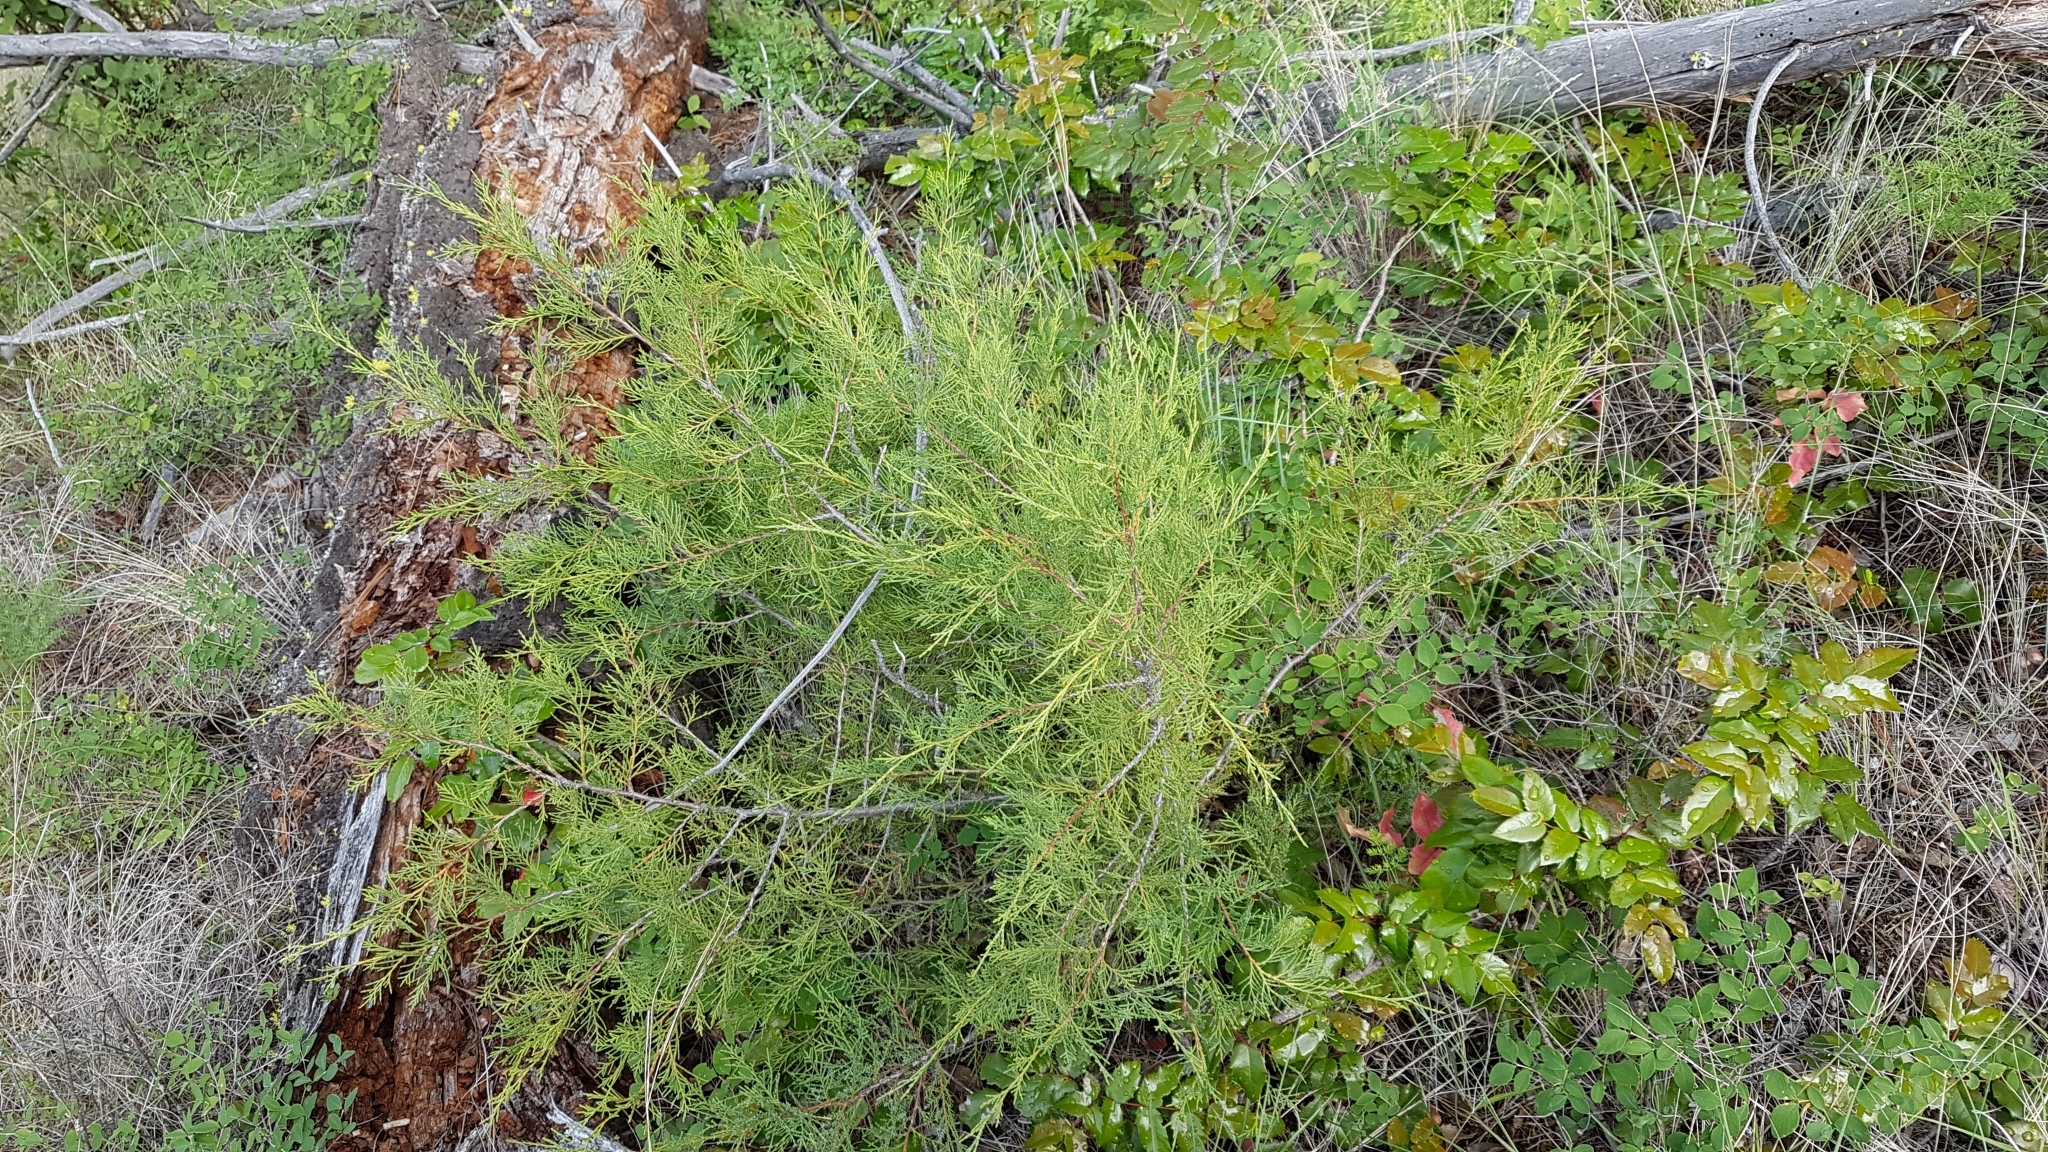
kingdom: Plantae
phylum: Tracheophyta
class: Pinopsida
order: Pinales
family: Cupressaceae
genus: Juniperus
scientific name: Juniperus scopulorum
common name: Rocky mountain juniper
